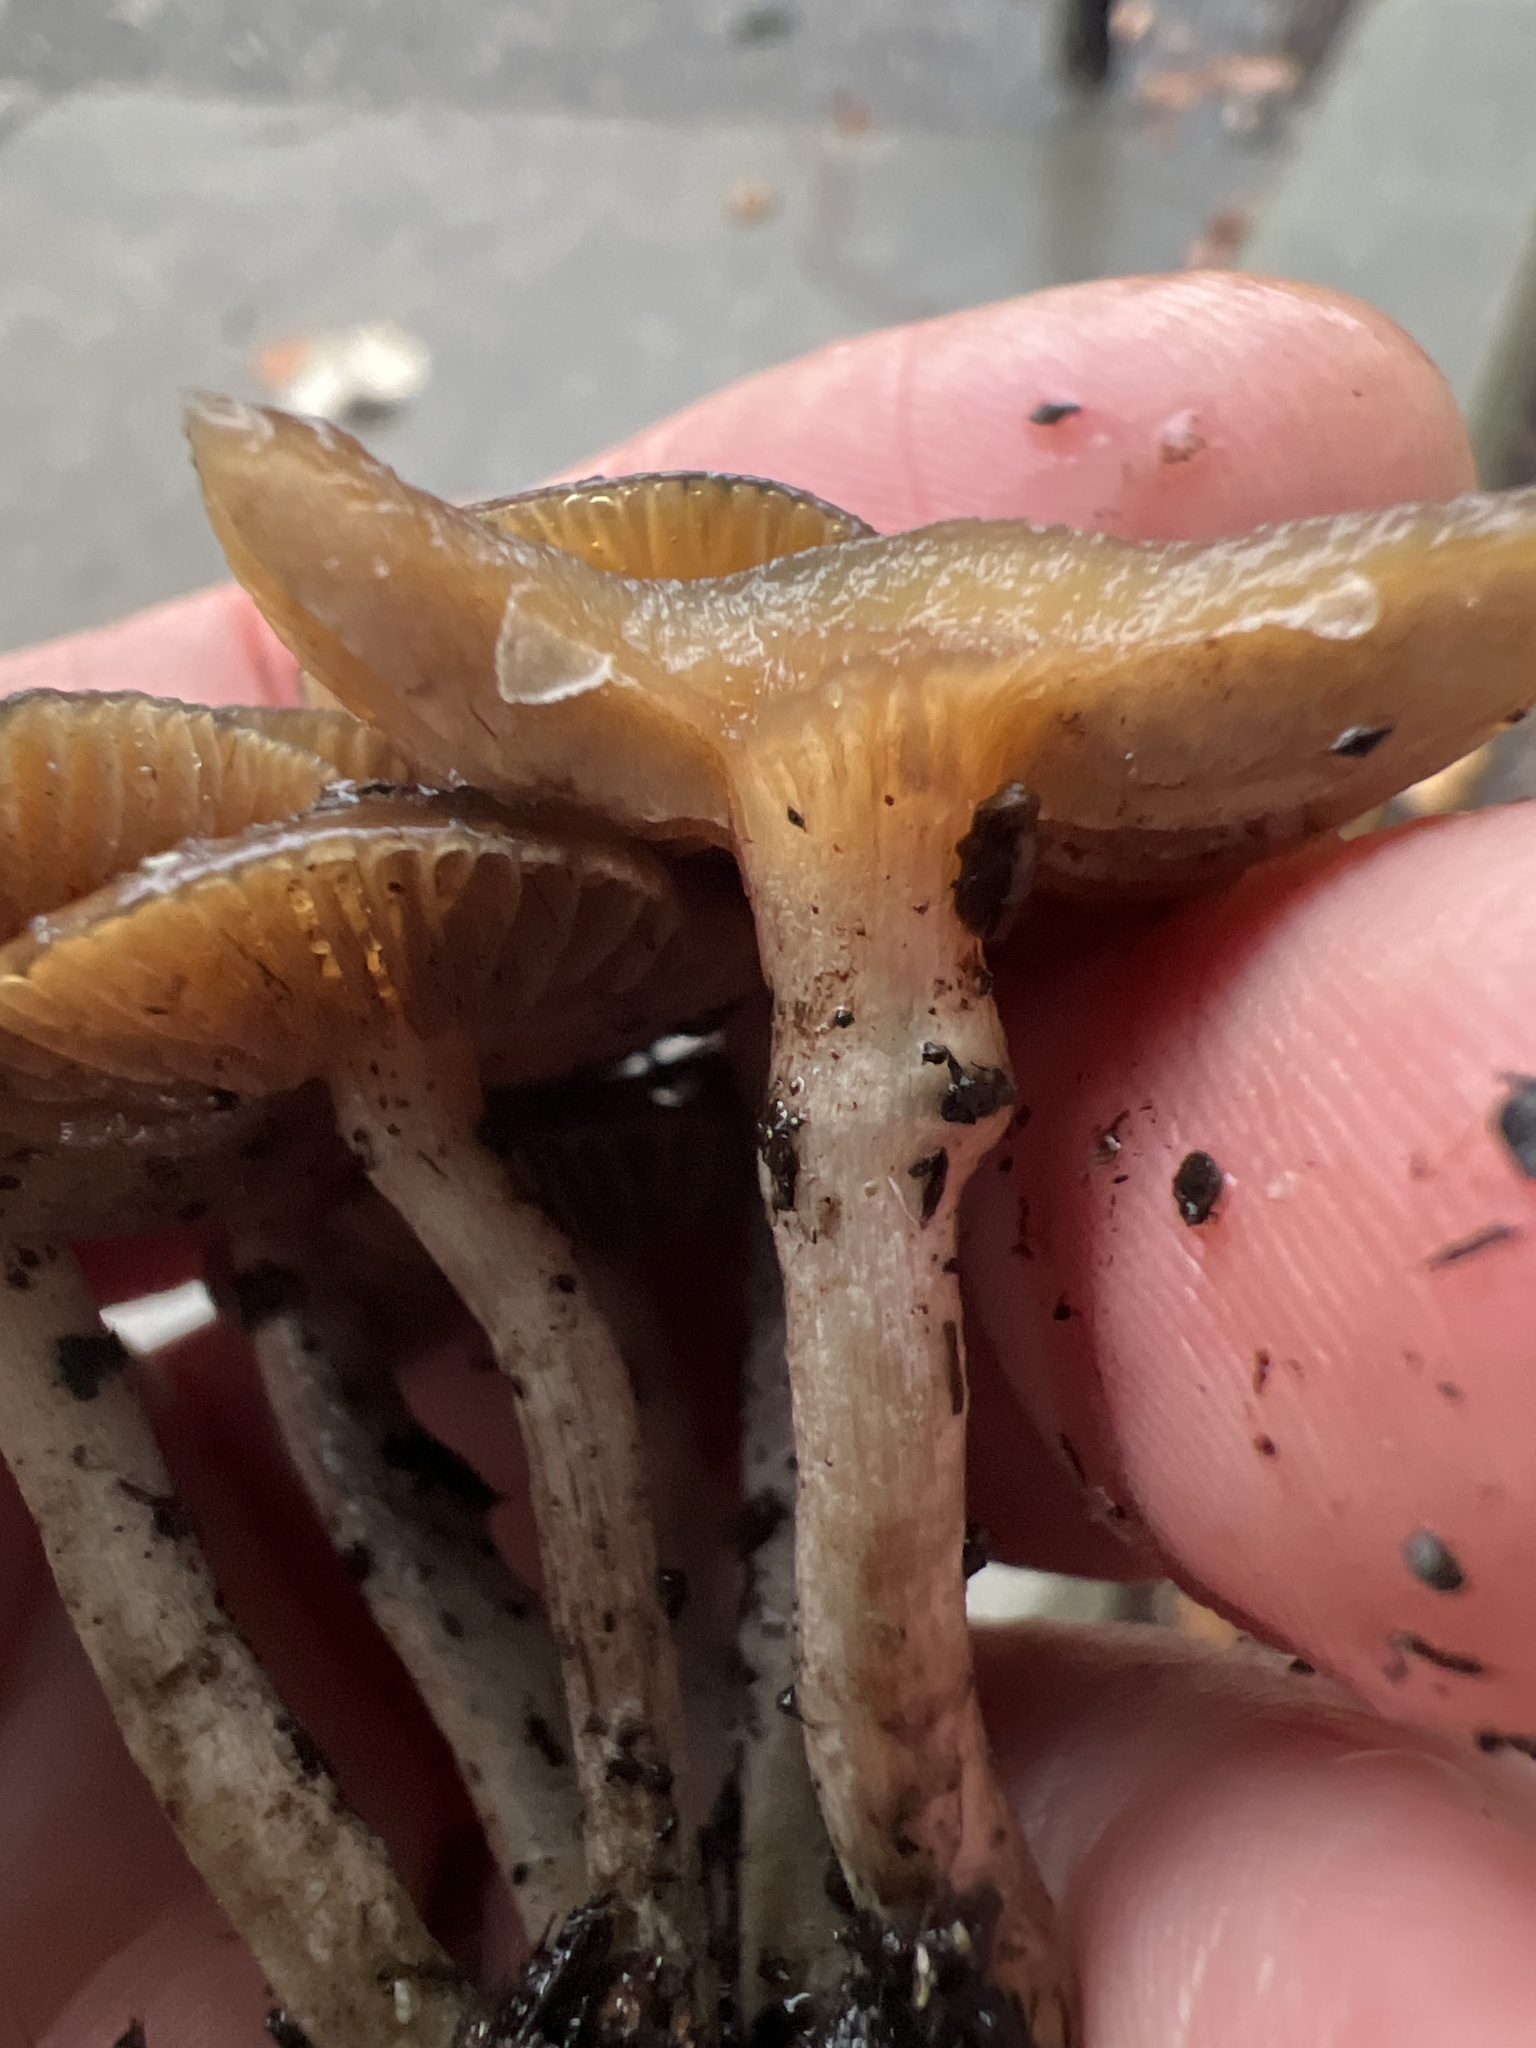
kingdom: Fungi
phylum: Basidiomycota
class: Agaricomycetes
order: Agaricales
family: Hymenogastraceae
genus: Psilocybe
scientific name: Psilocybe cyanescens
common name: Blueleg brownie
